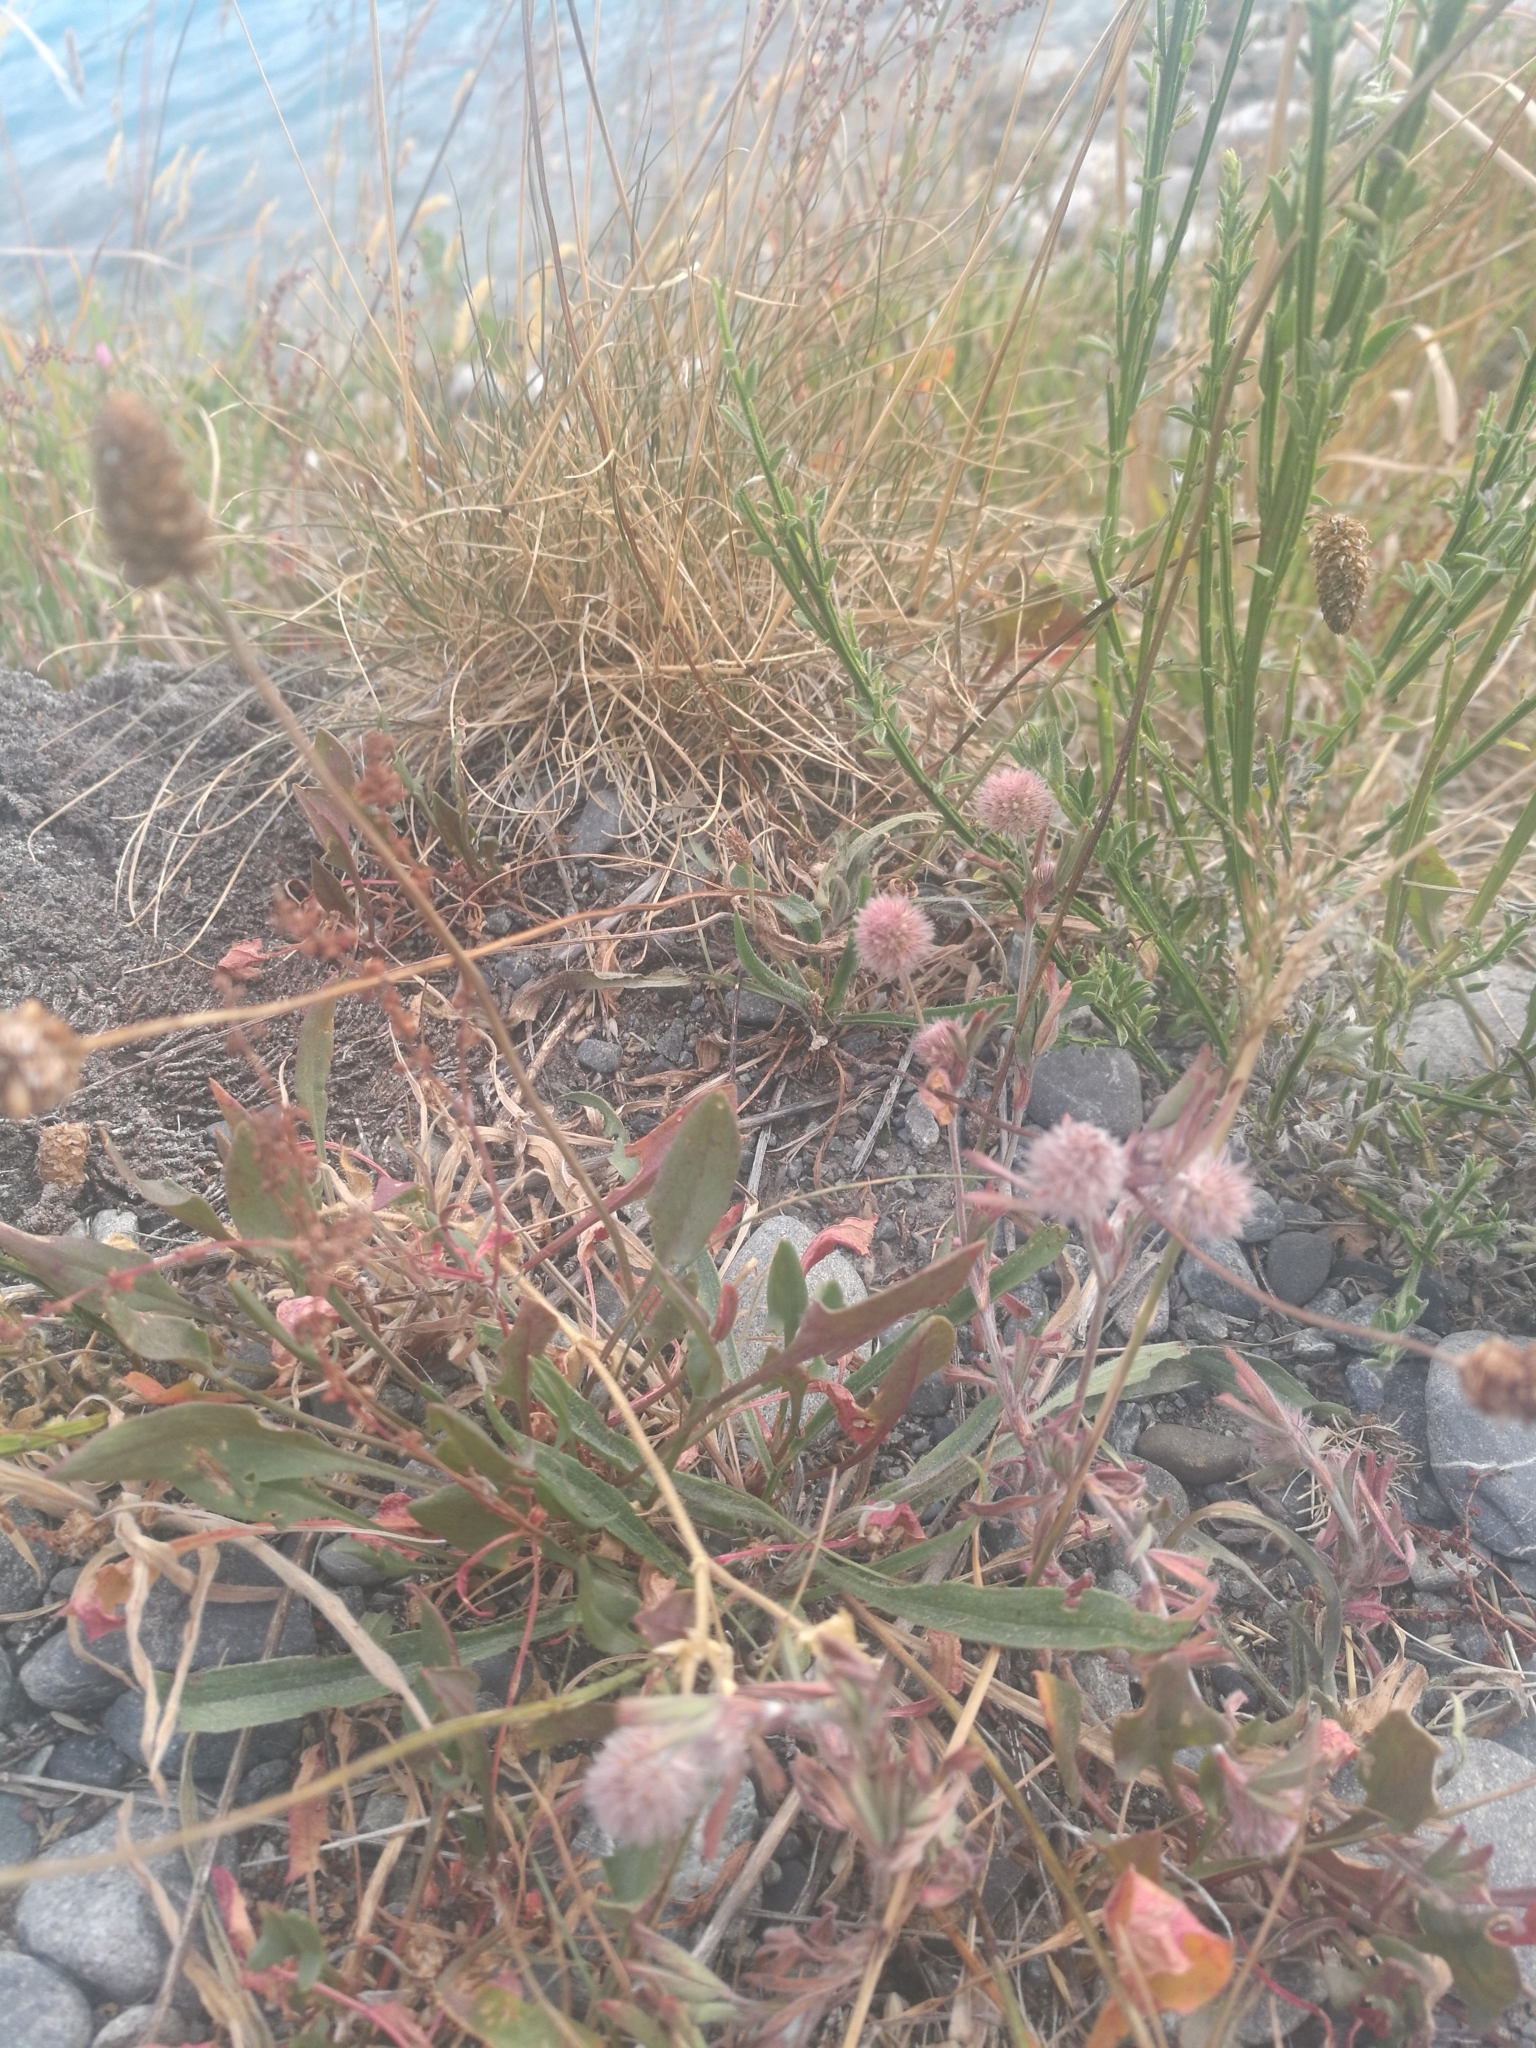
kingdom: Plantae
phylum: Tracheophyta
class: Magnoliopsida
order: Fabales
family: Fabaceae
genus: Trifolium
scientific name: Trifolium arvense
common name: Hare's-foot clover
